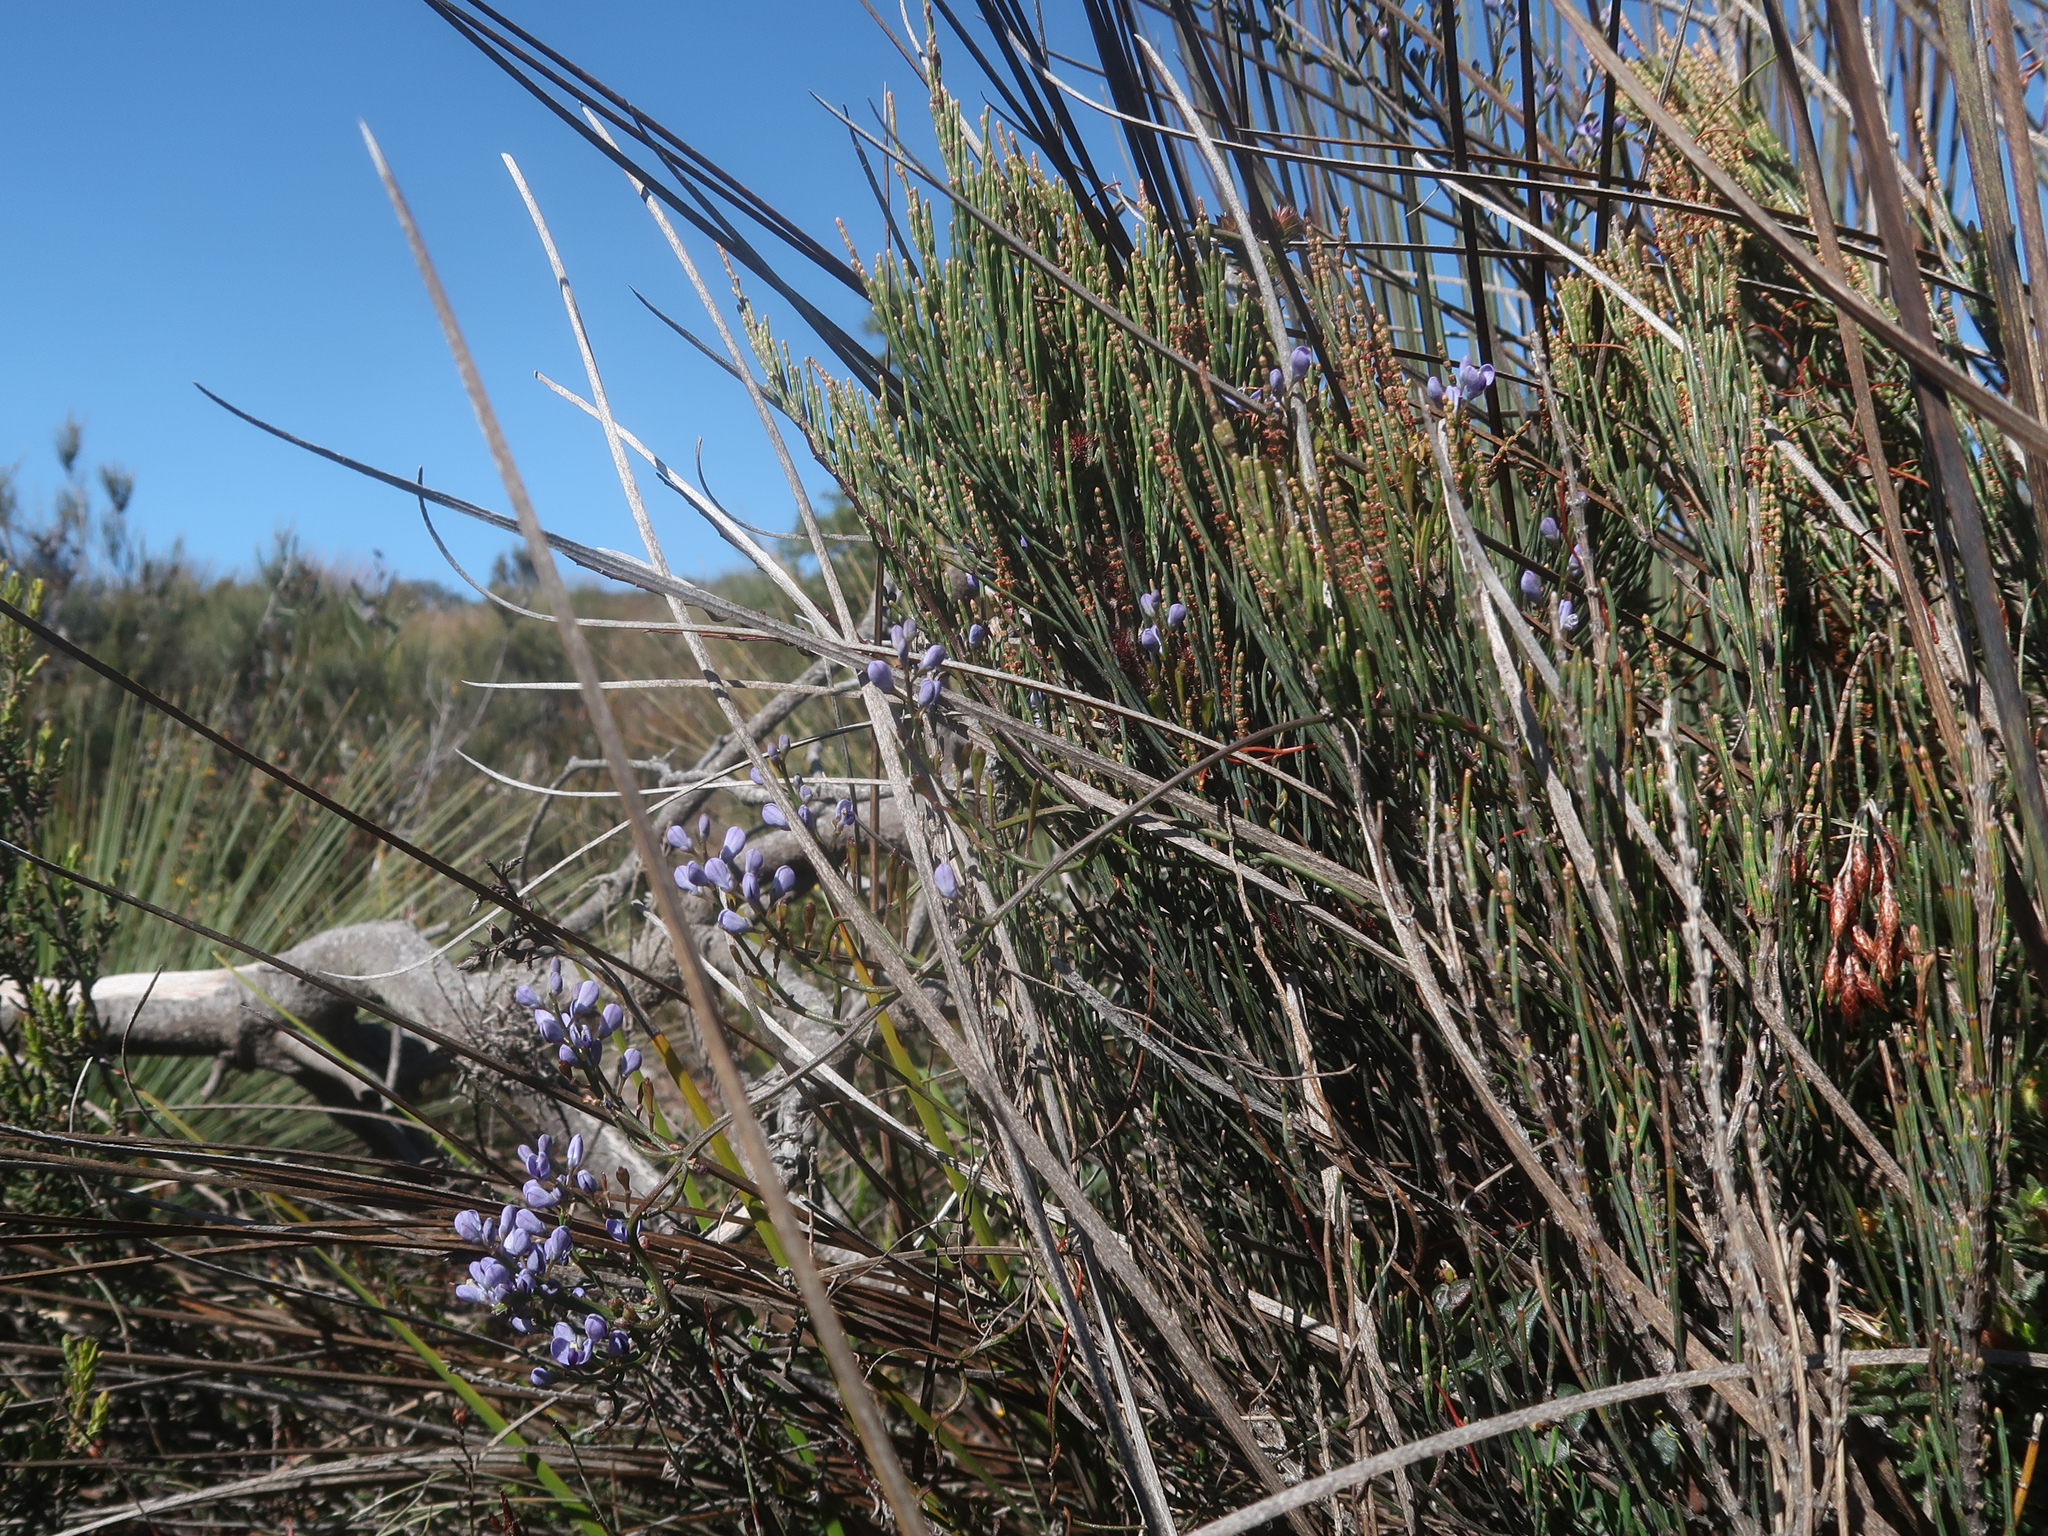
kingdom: Plantae
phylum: Tracheophyta
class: Magnoliopsida
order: Fabales
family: Polygalaceae
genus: Comesperma
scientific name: Comesperma volubile
